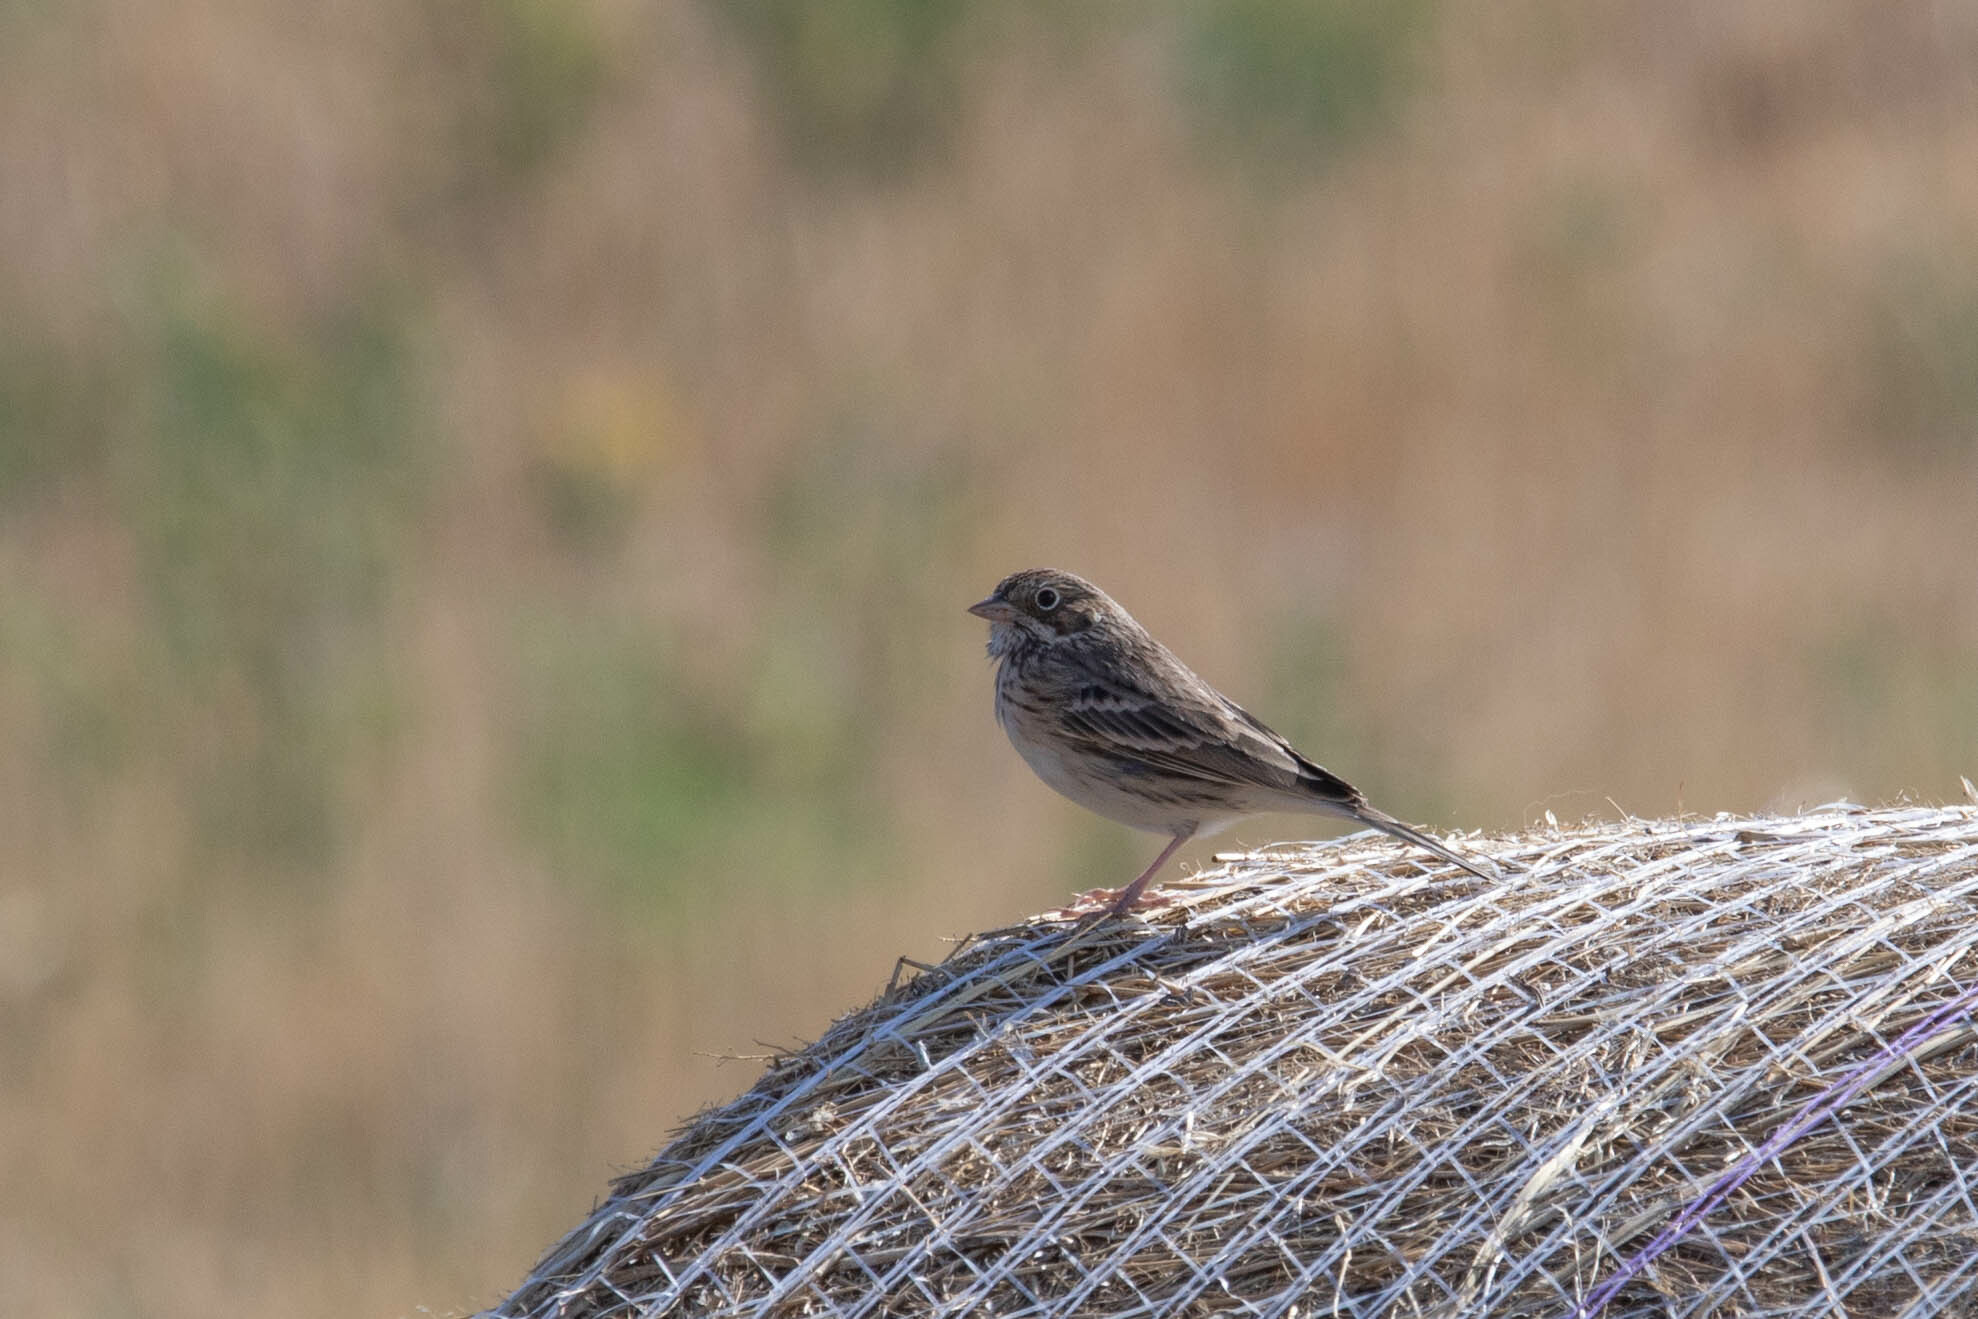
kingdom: Animalia
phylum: Chordata
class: Aves
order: Passeriformes
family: Passerellidae
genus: Pooecetes
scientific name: Pooecetes gramineus
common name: Vesper sparrow
